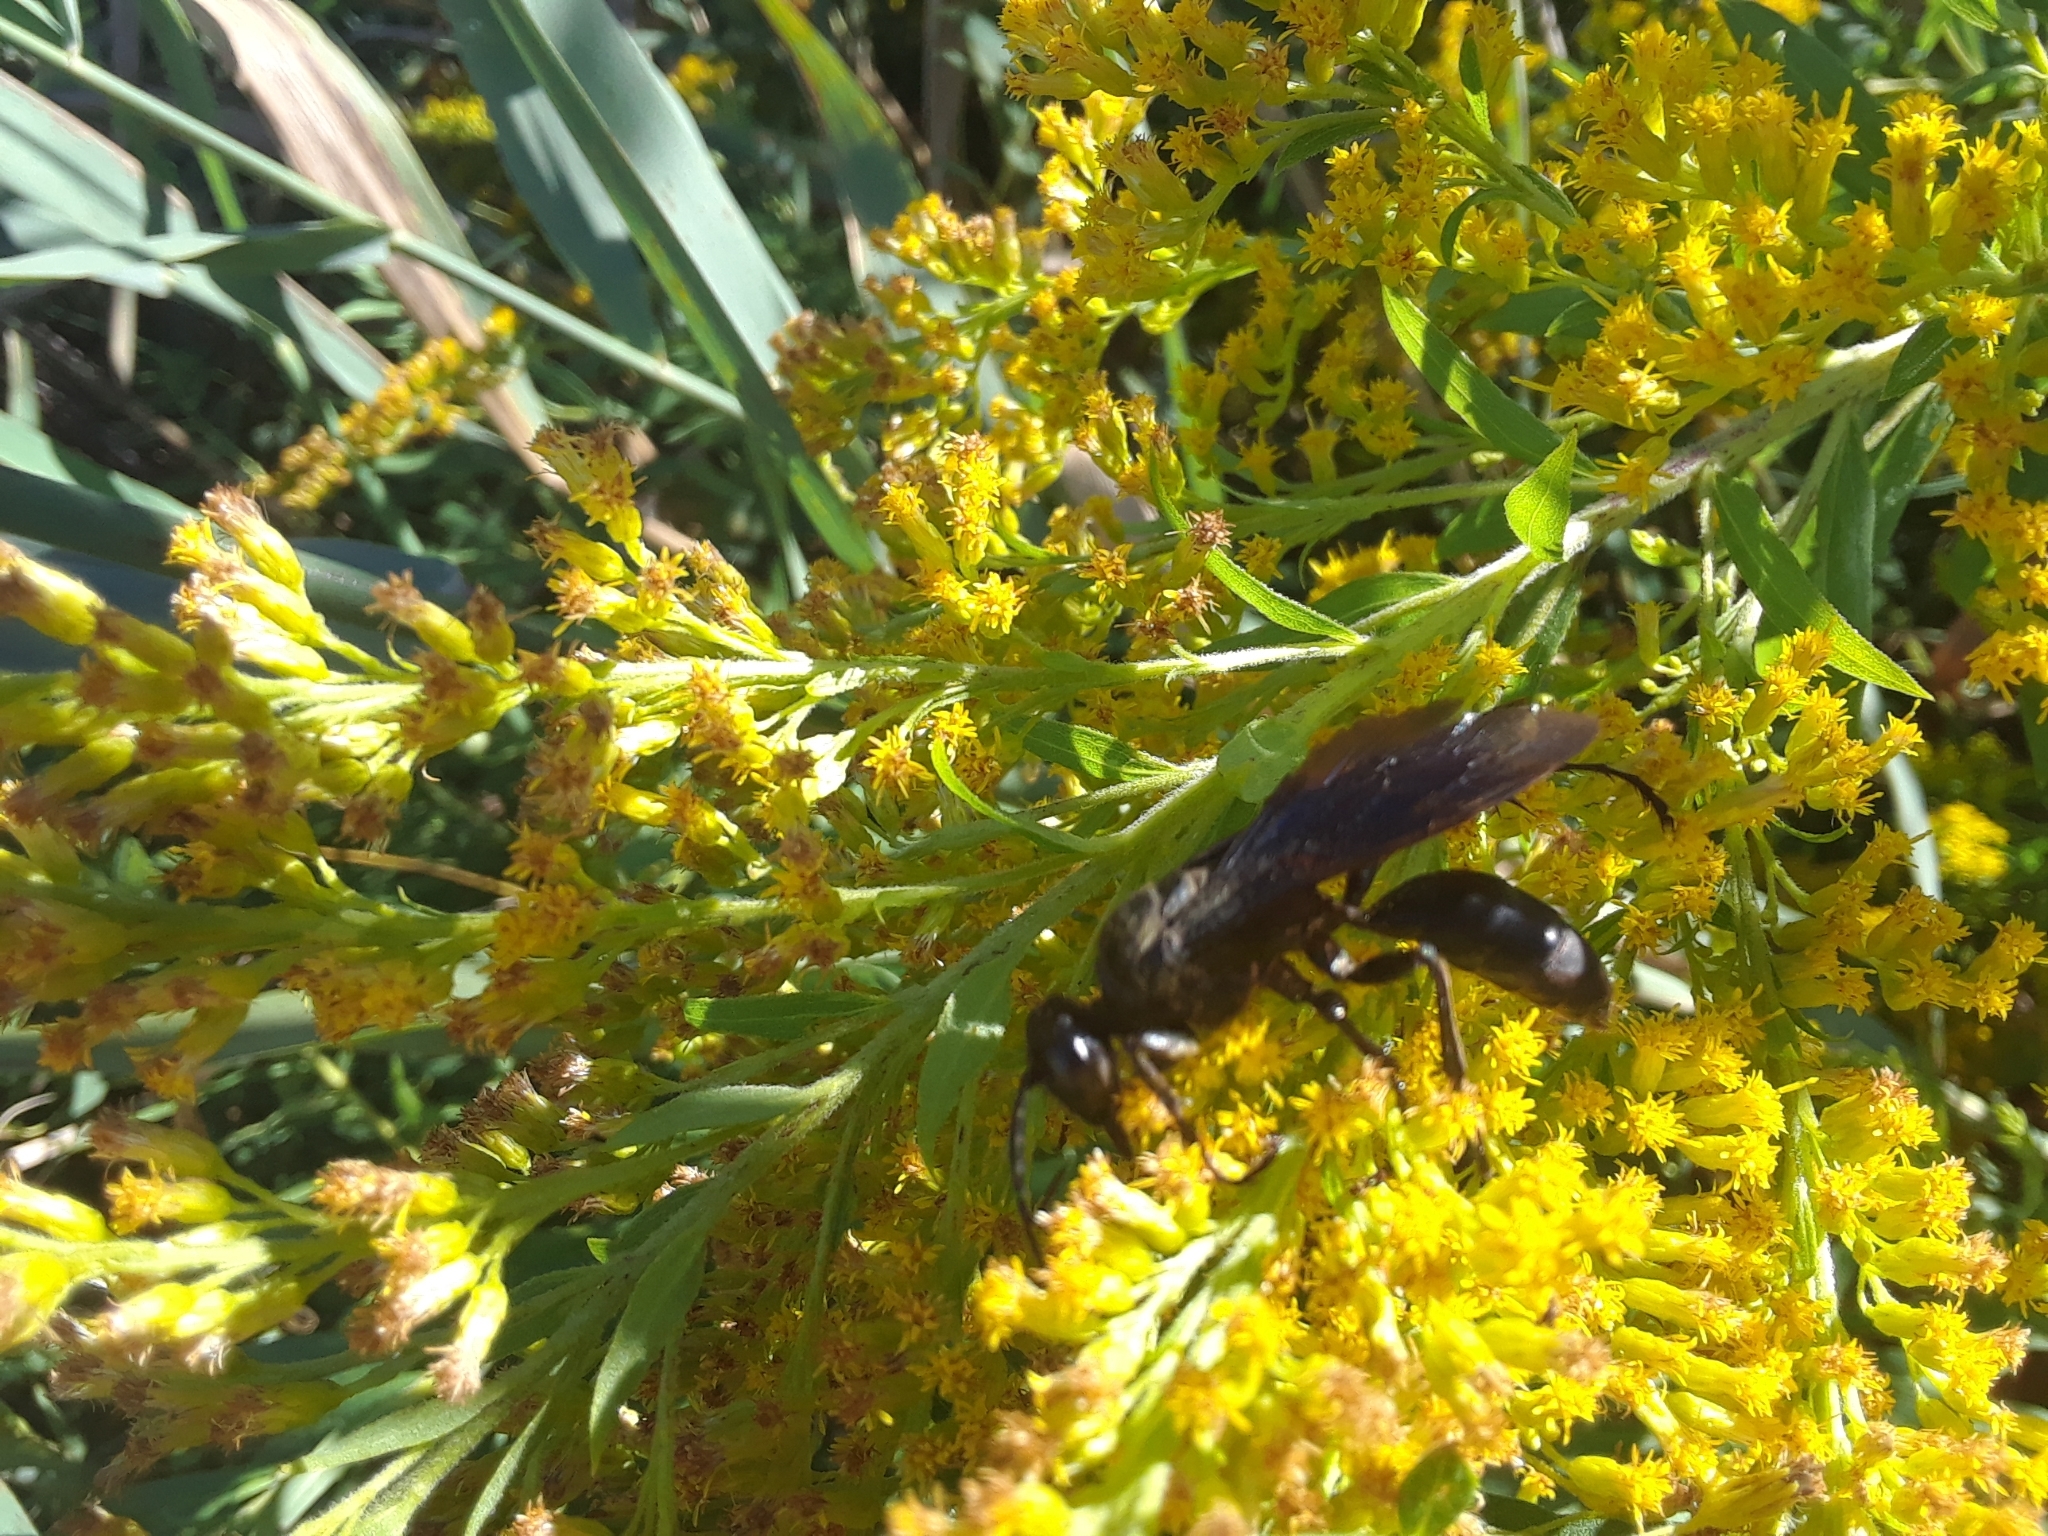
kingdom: Animalia
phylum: Arthropoda
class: Insecta
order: Hymenoptera
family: Sphecidae
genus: Sphex
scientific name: Sphex pensylvanicus
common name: Great black digger wasp
